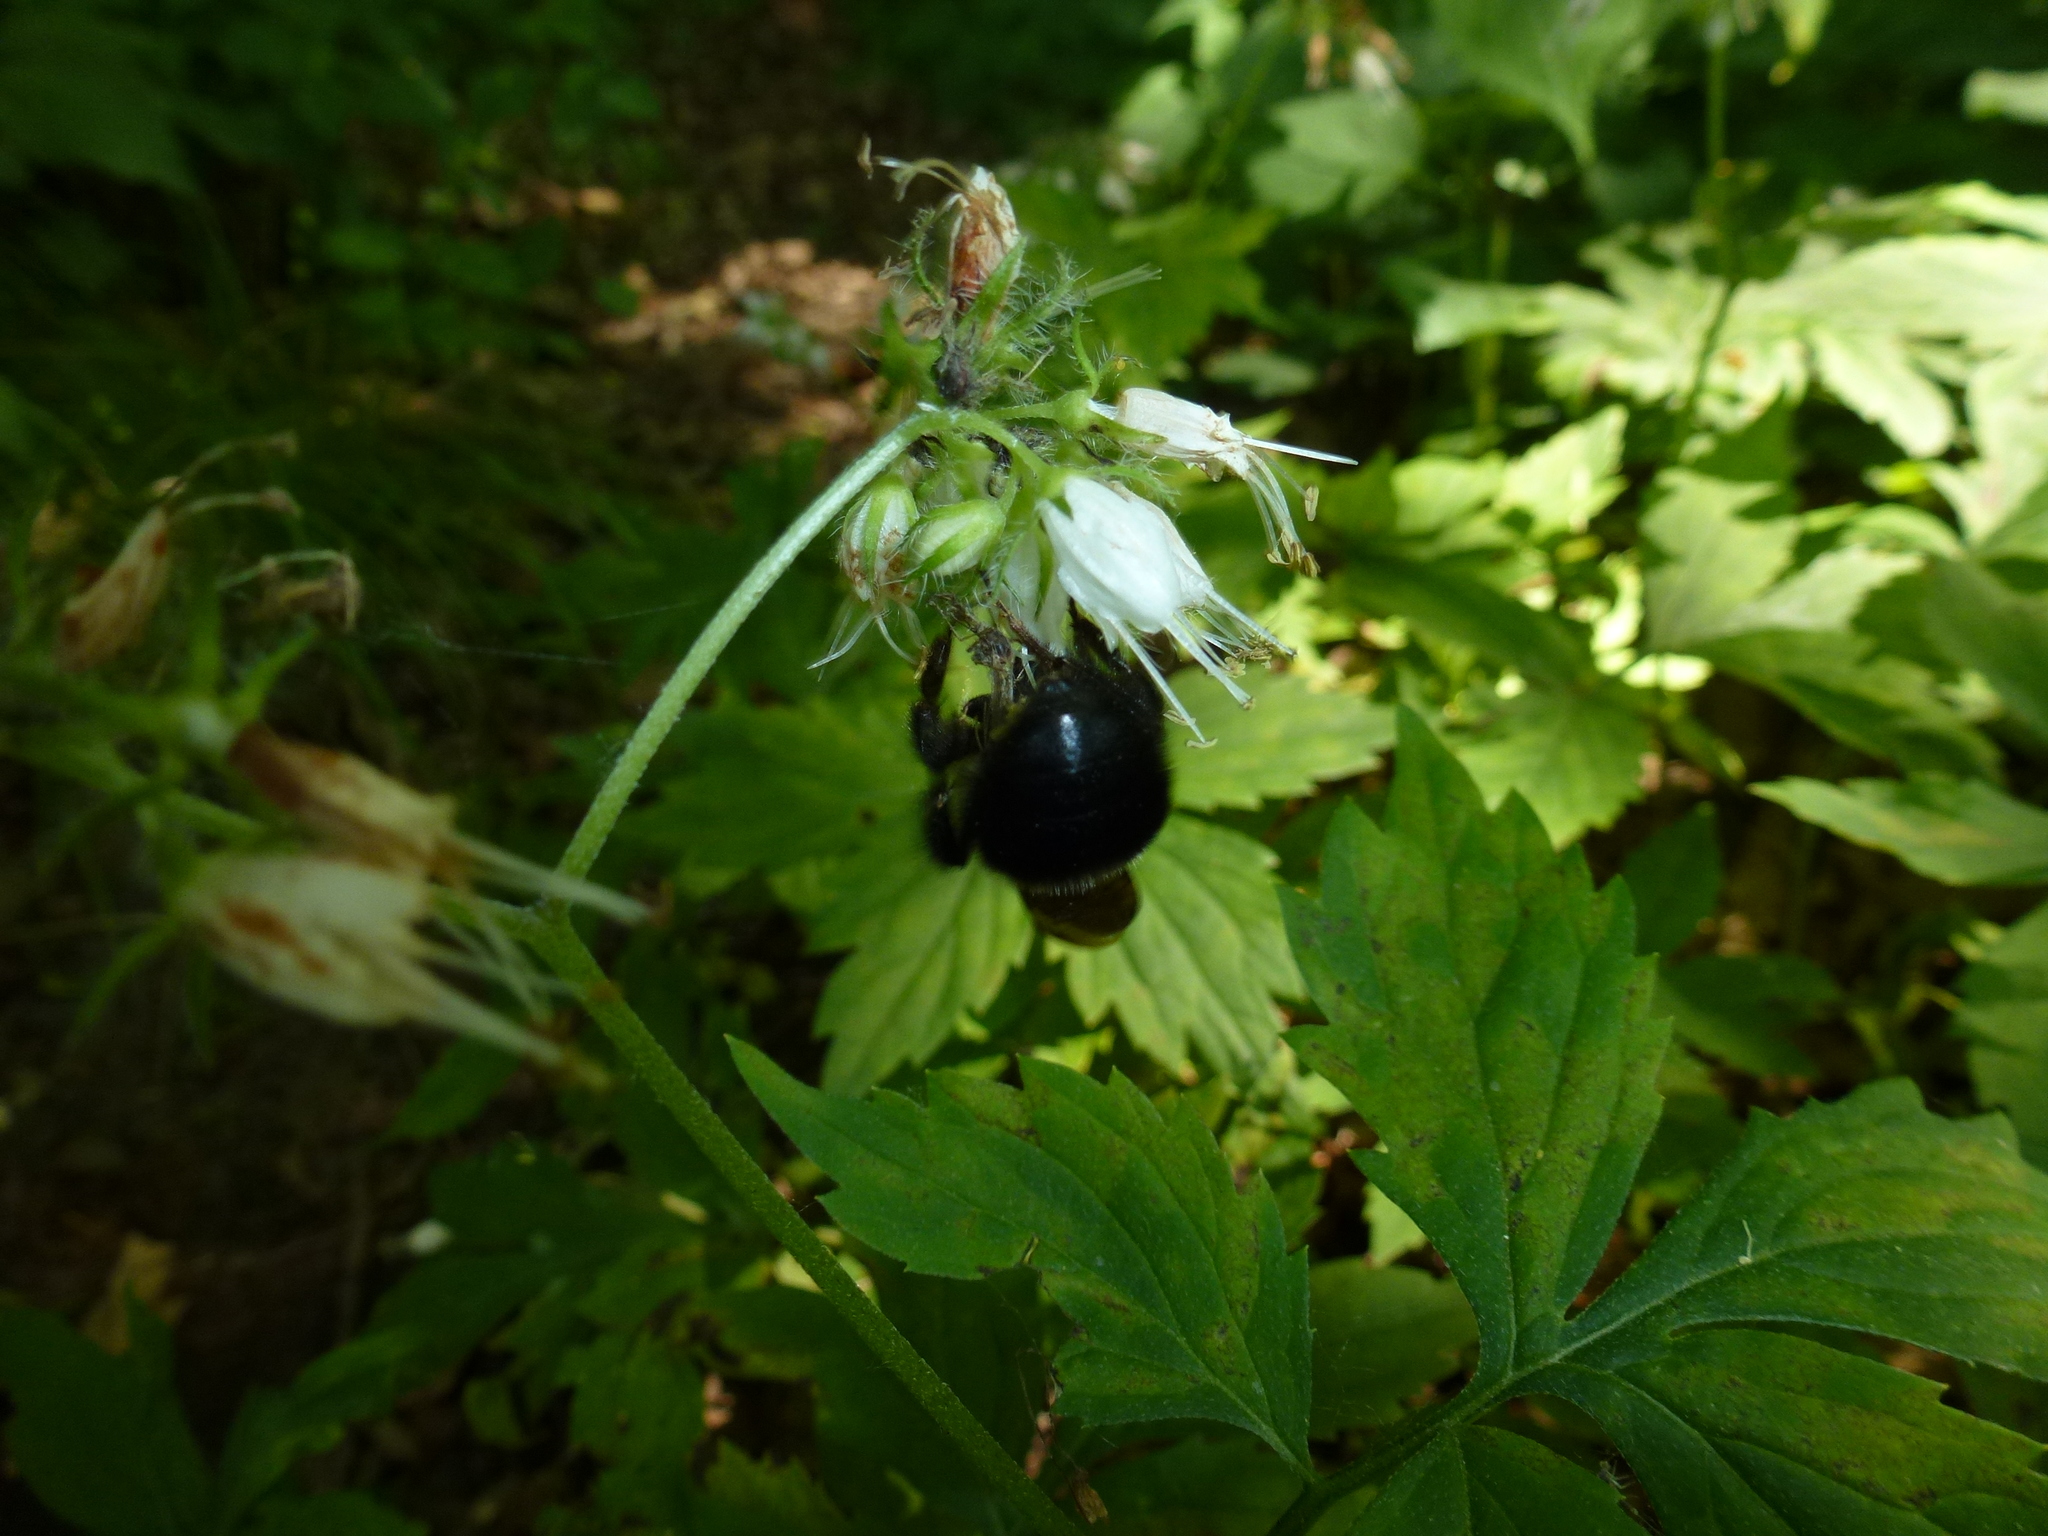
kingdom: Animalia
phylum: Arthropoda
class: Insecta
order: Hymenoptera
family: Apidae
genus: Bombus
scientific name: Bombus
